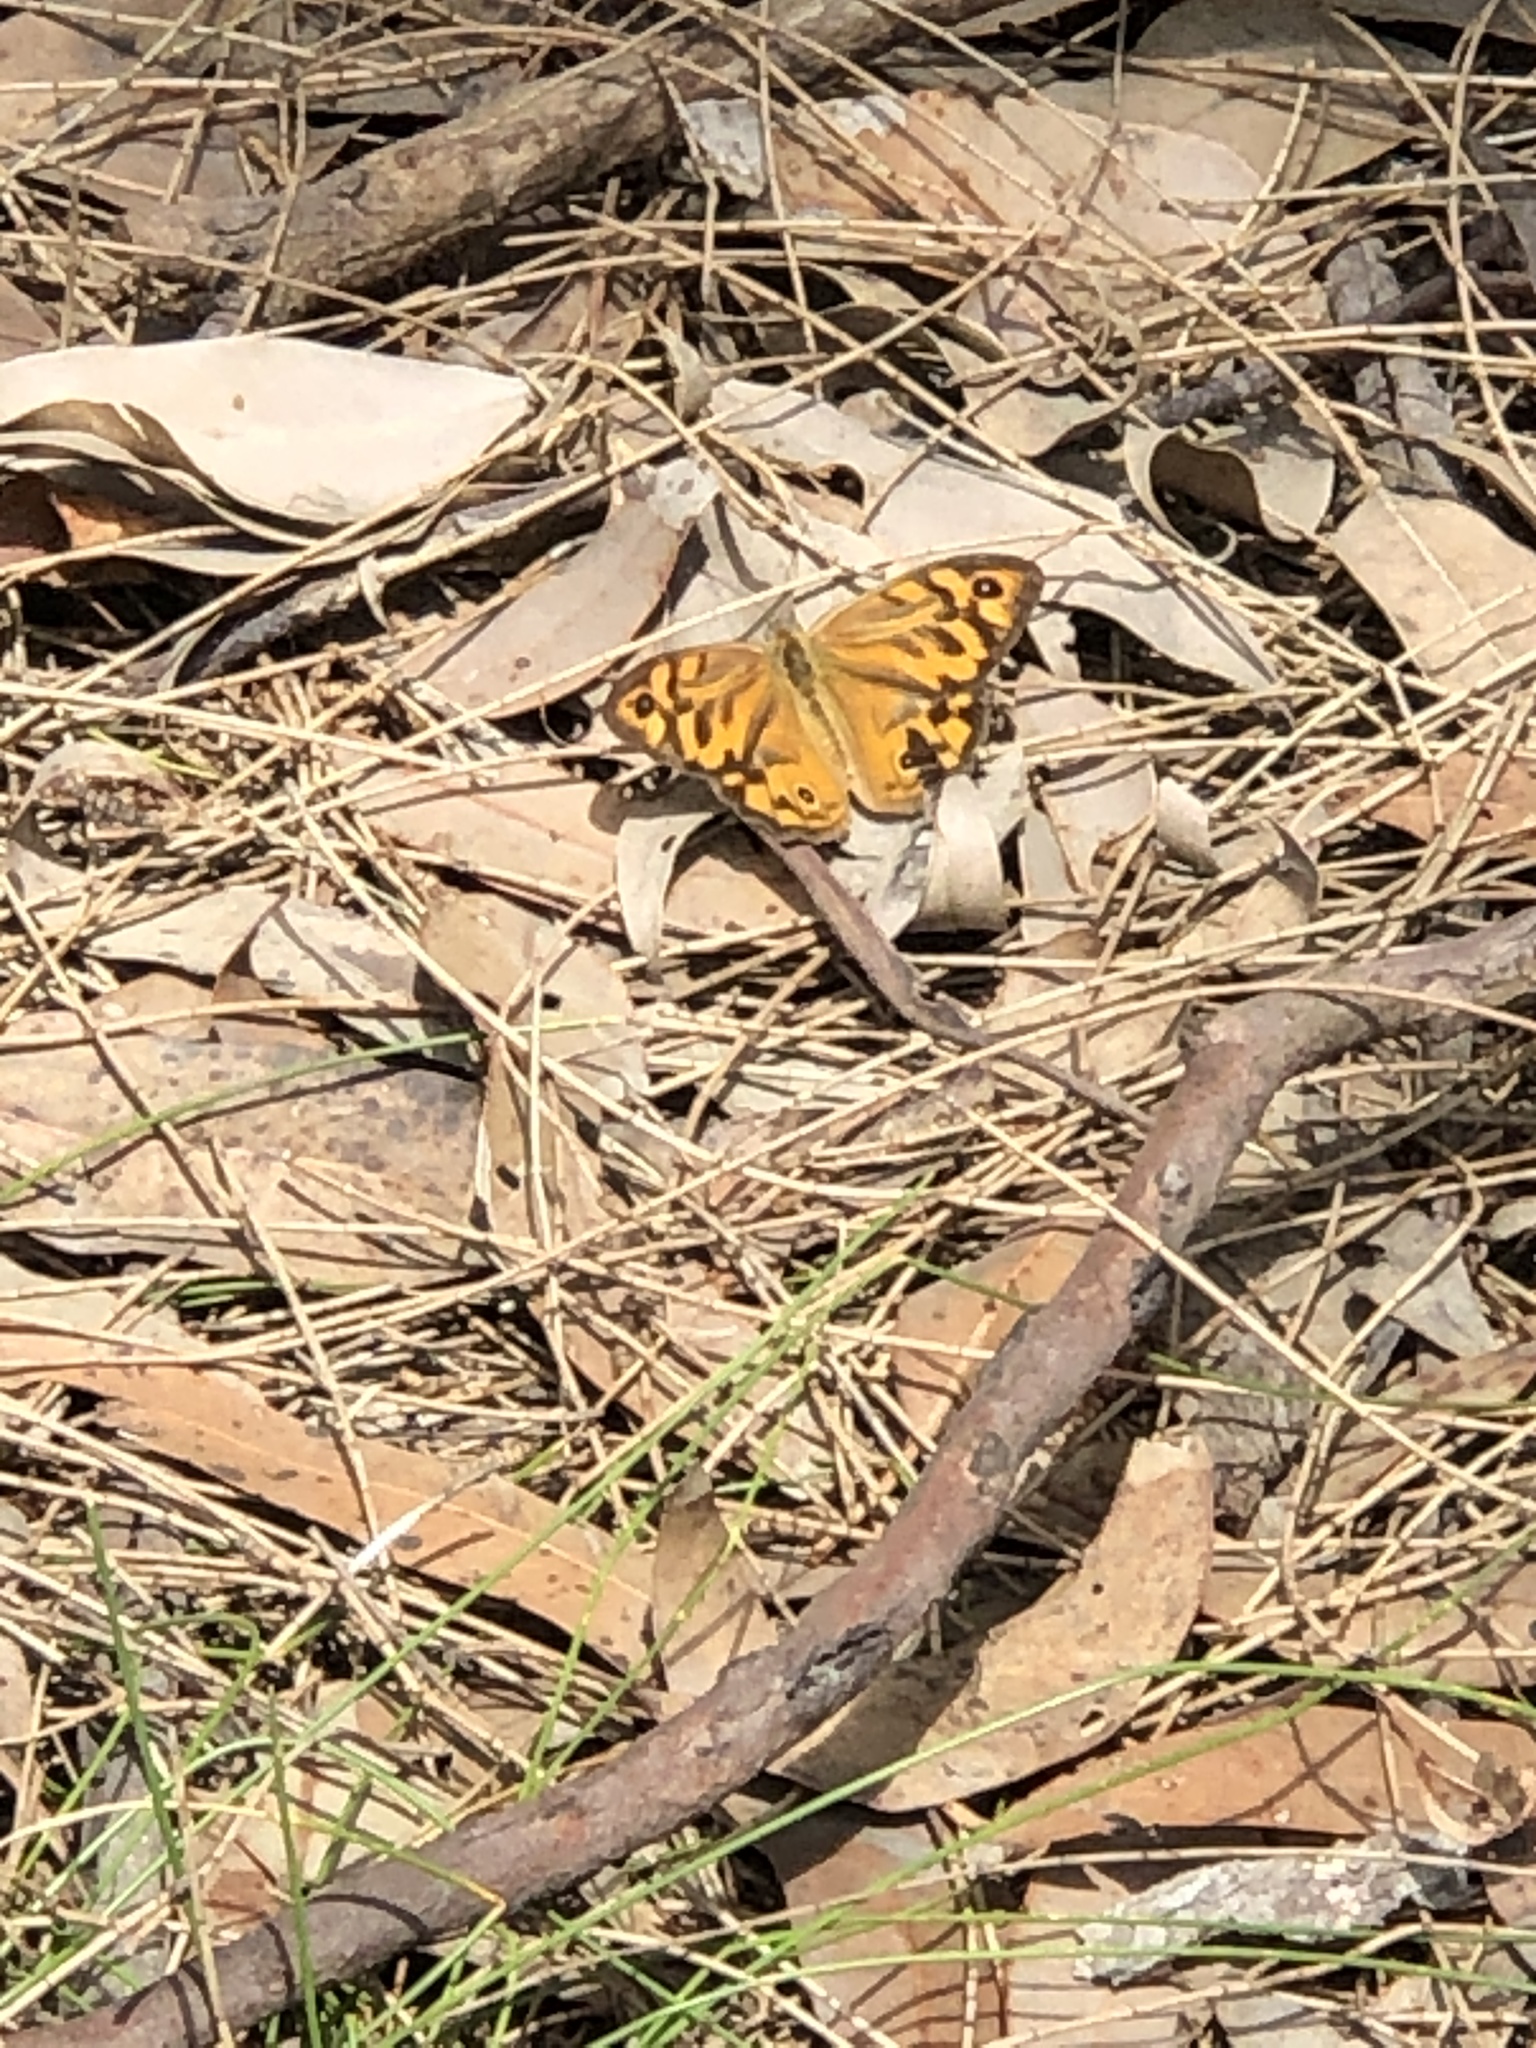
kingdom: Animalia
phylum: Arthropoda
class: Insecta
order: Lepidoptera
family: Nymphalidae
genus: Heteronympha
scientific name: Heteronympha merope
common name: Common brown
